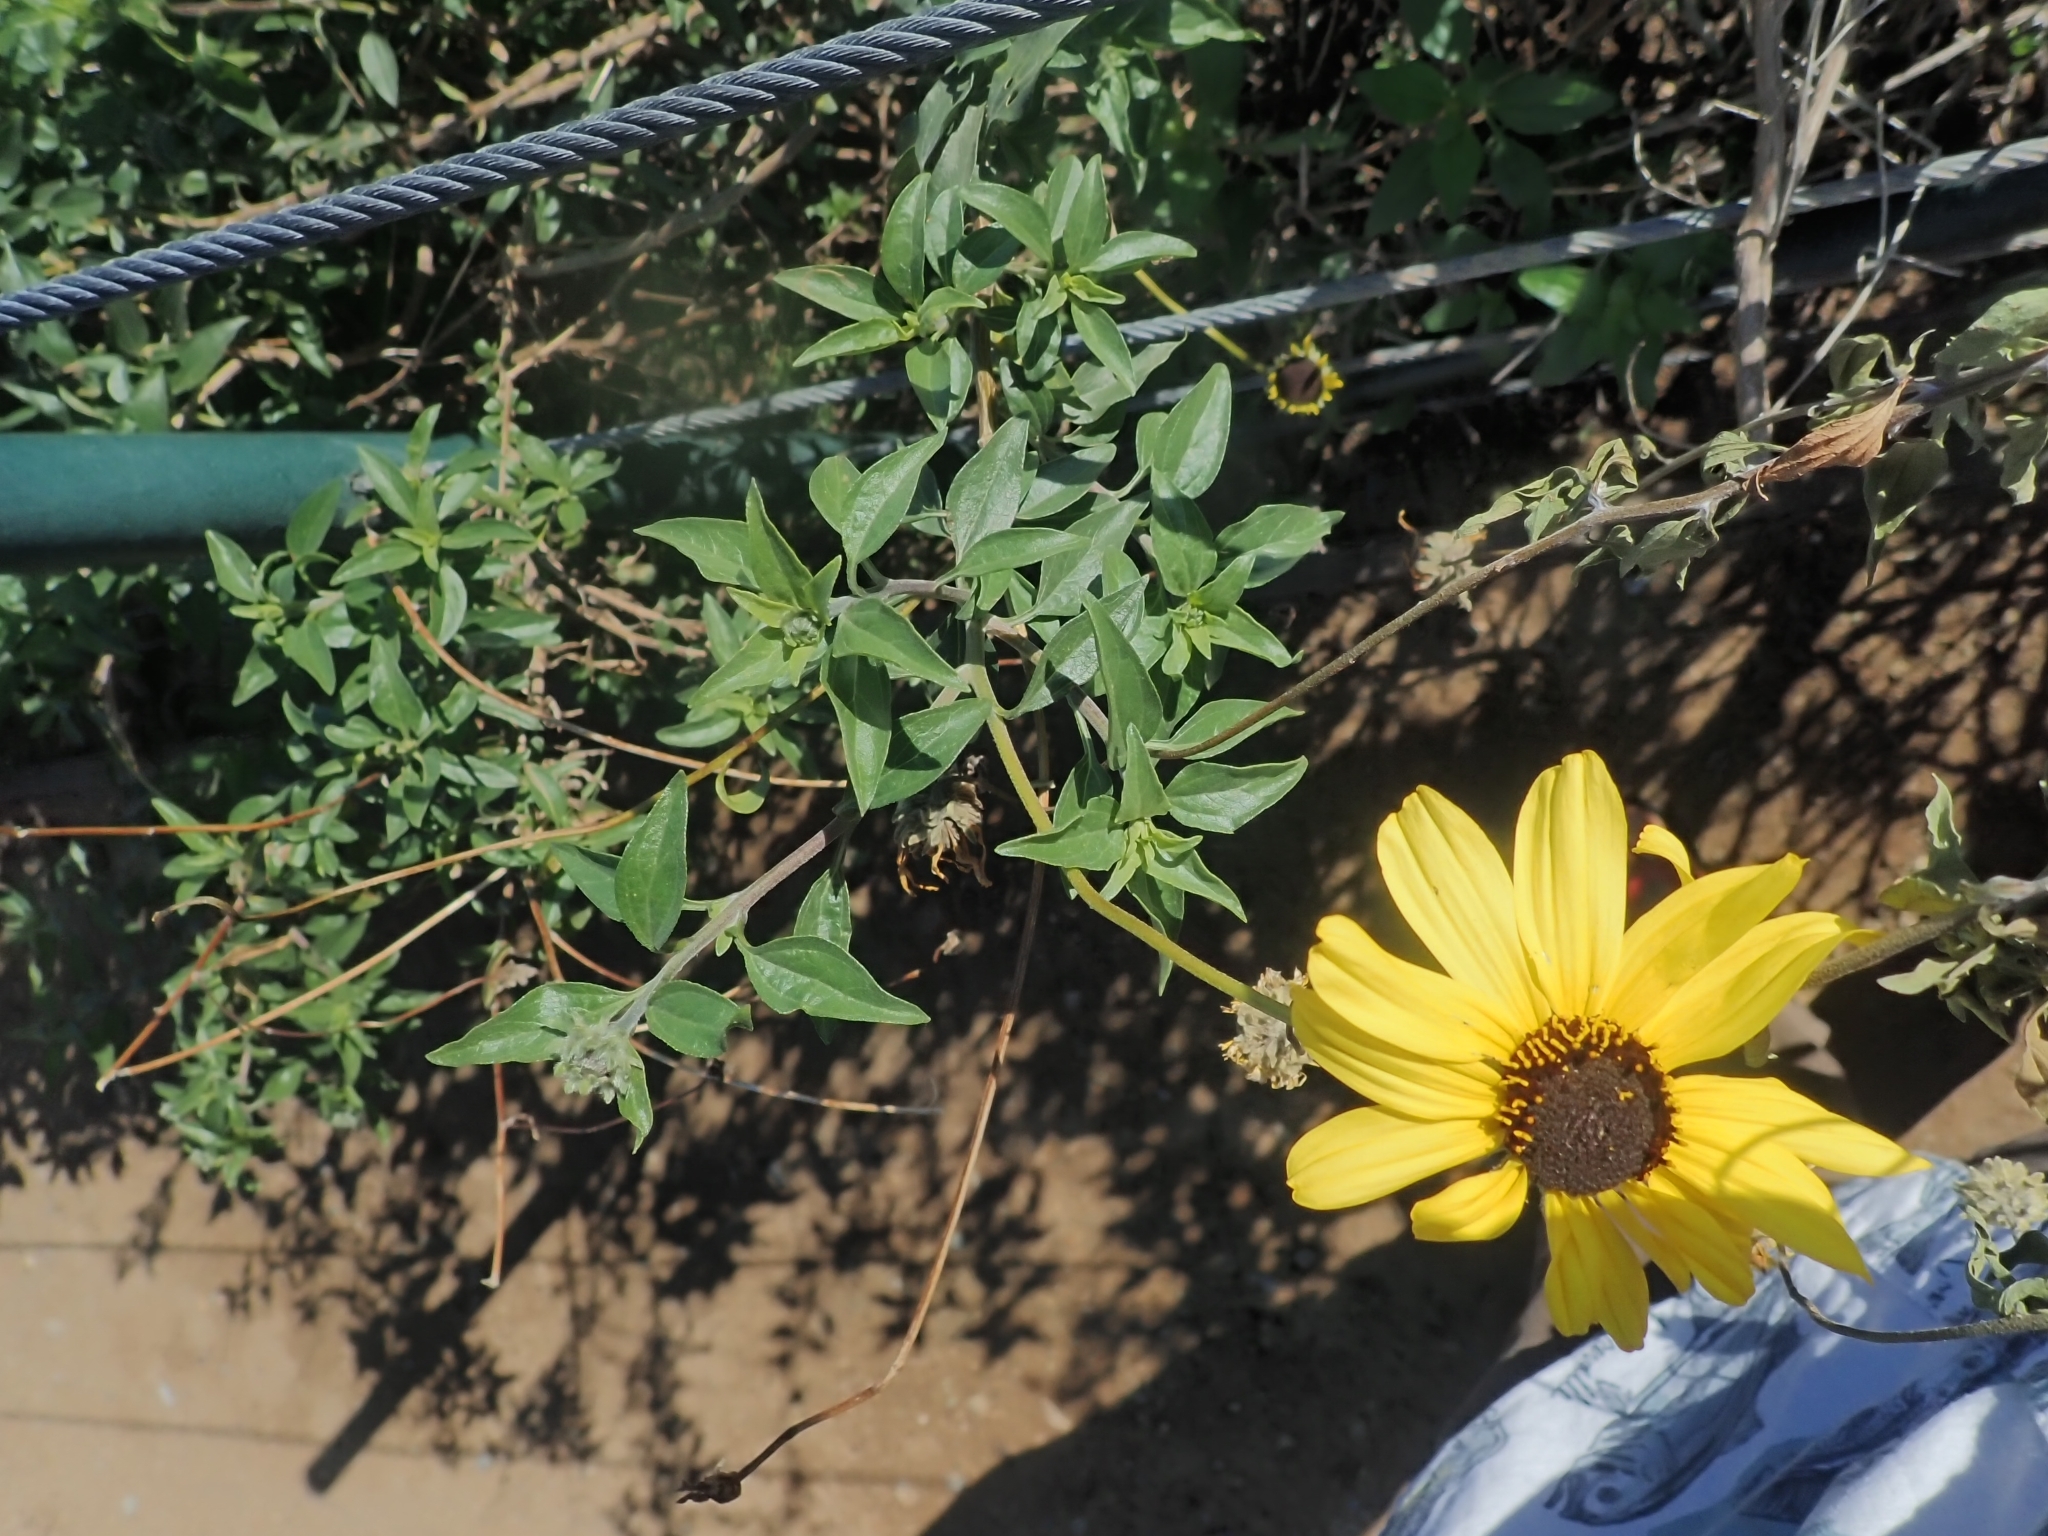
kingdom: Plantae
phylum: Tracheophyta
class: Magnoliopsida
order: Asterales
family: Asteraceae
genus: Encelia
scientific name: Encelia californica
